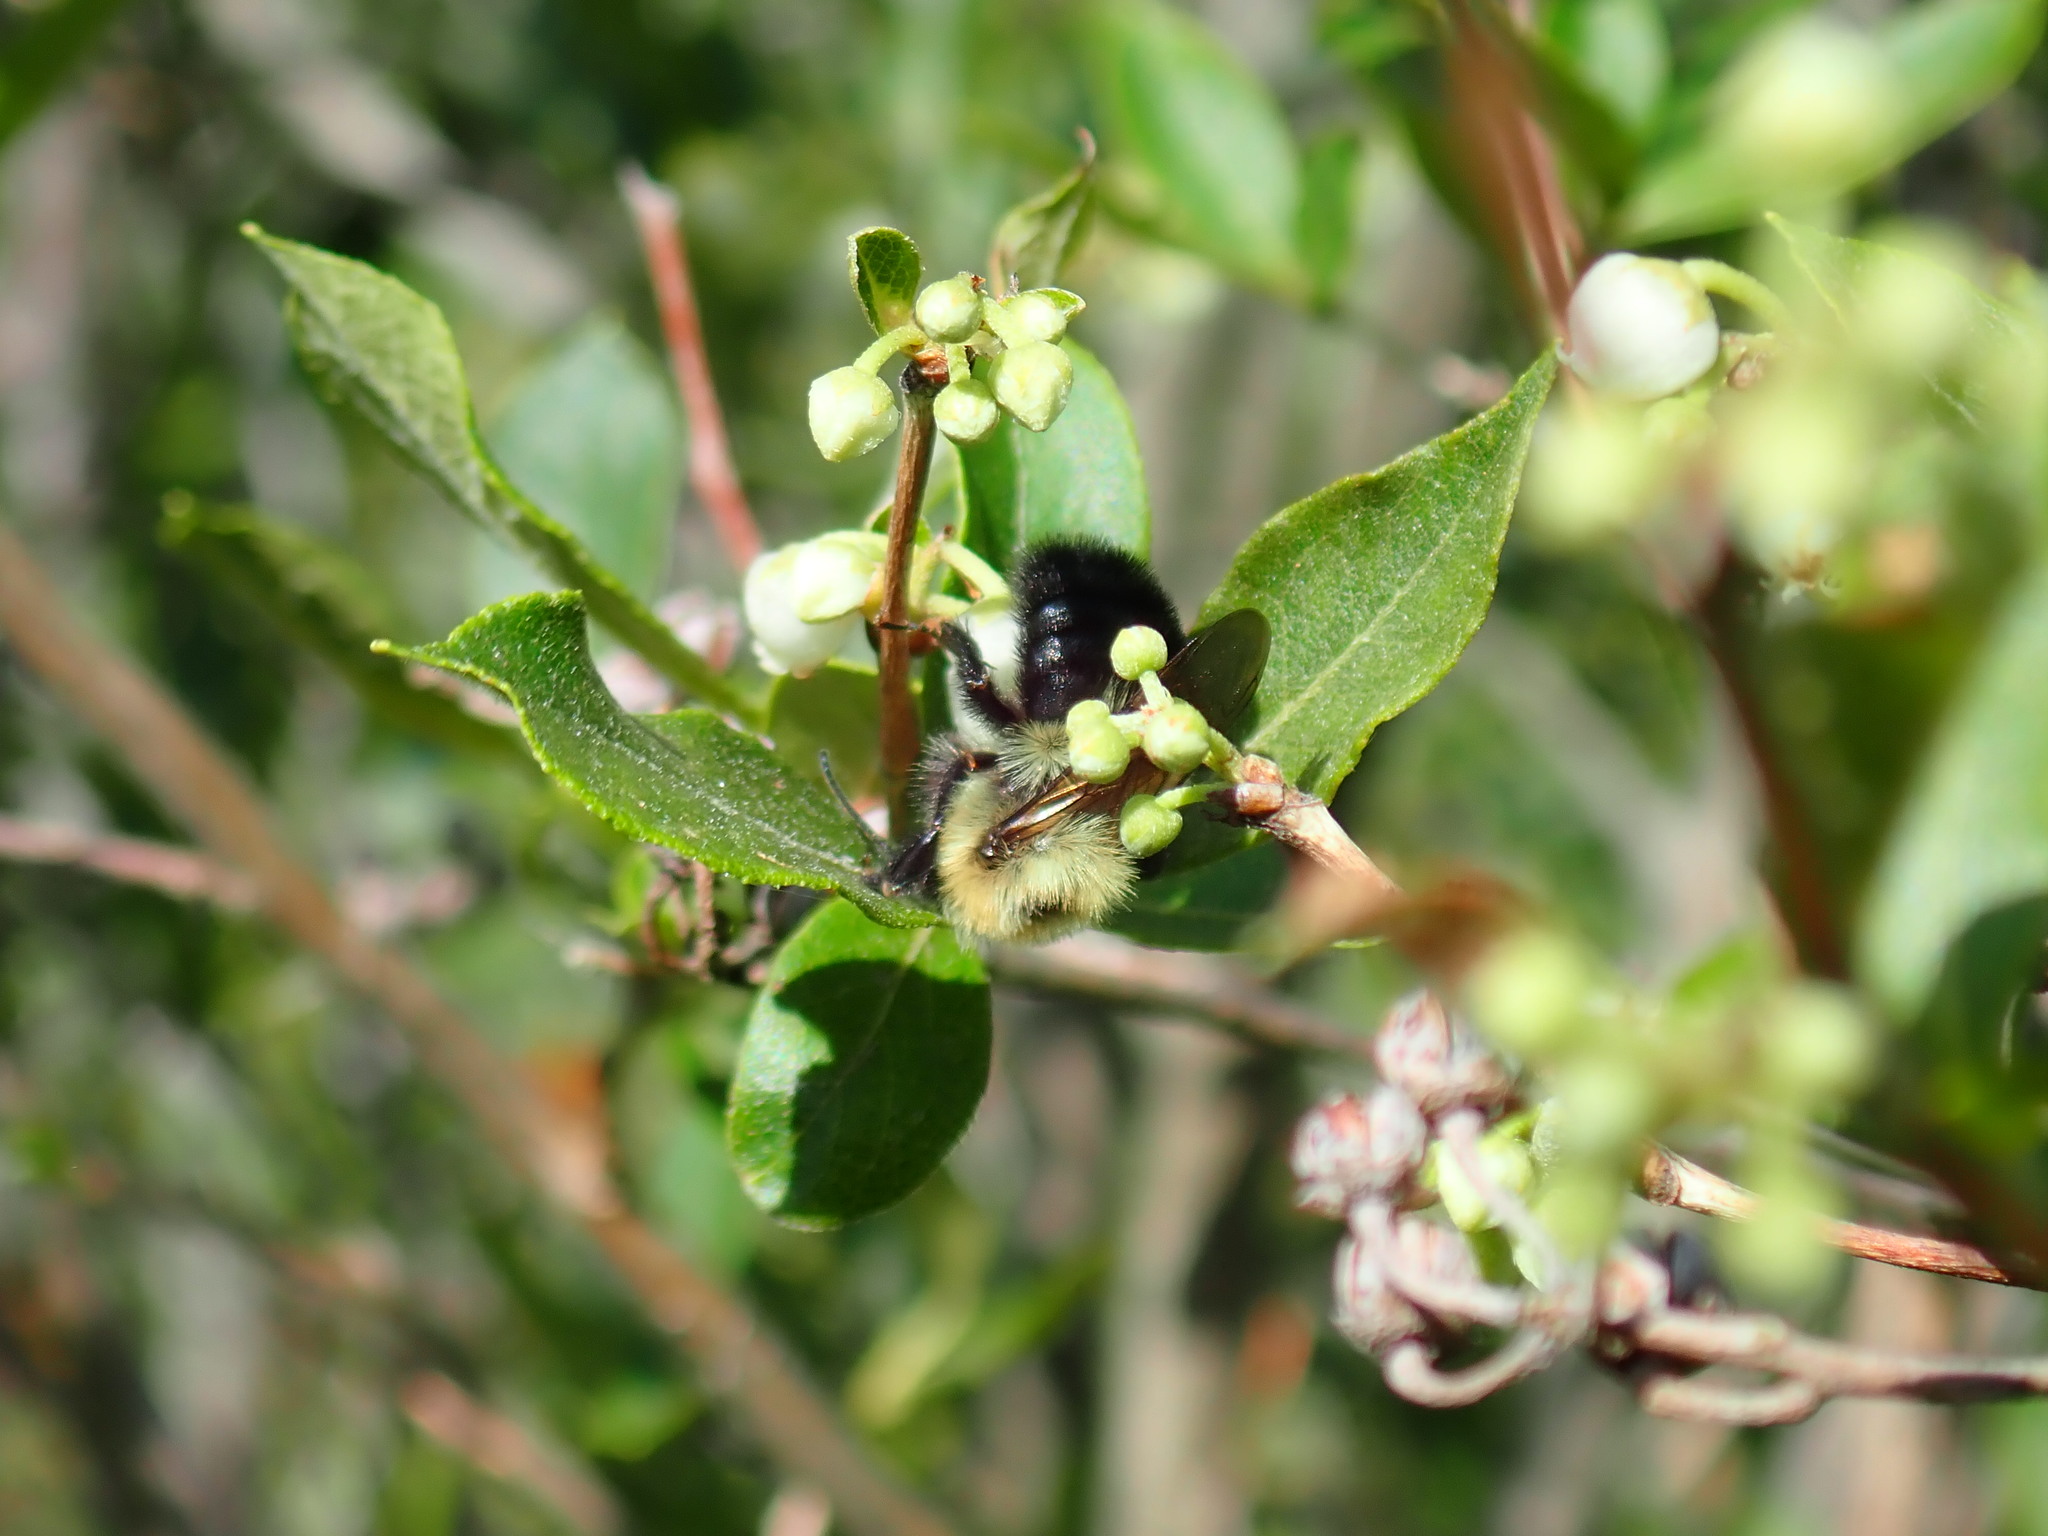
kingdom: Animalia
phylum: Arthropoda
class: Insecta
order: Hymenoptera
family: Apidae
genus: Bombus
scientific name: Bombus bimaculatus
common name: Two-spotted bumble bee
